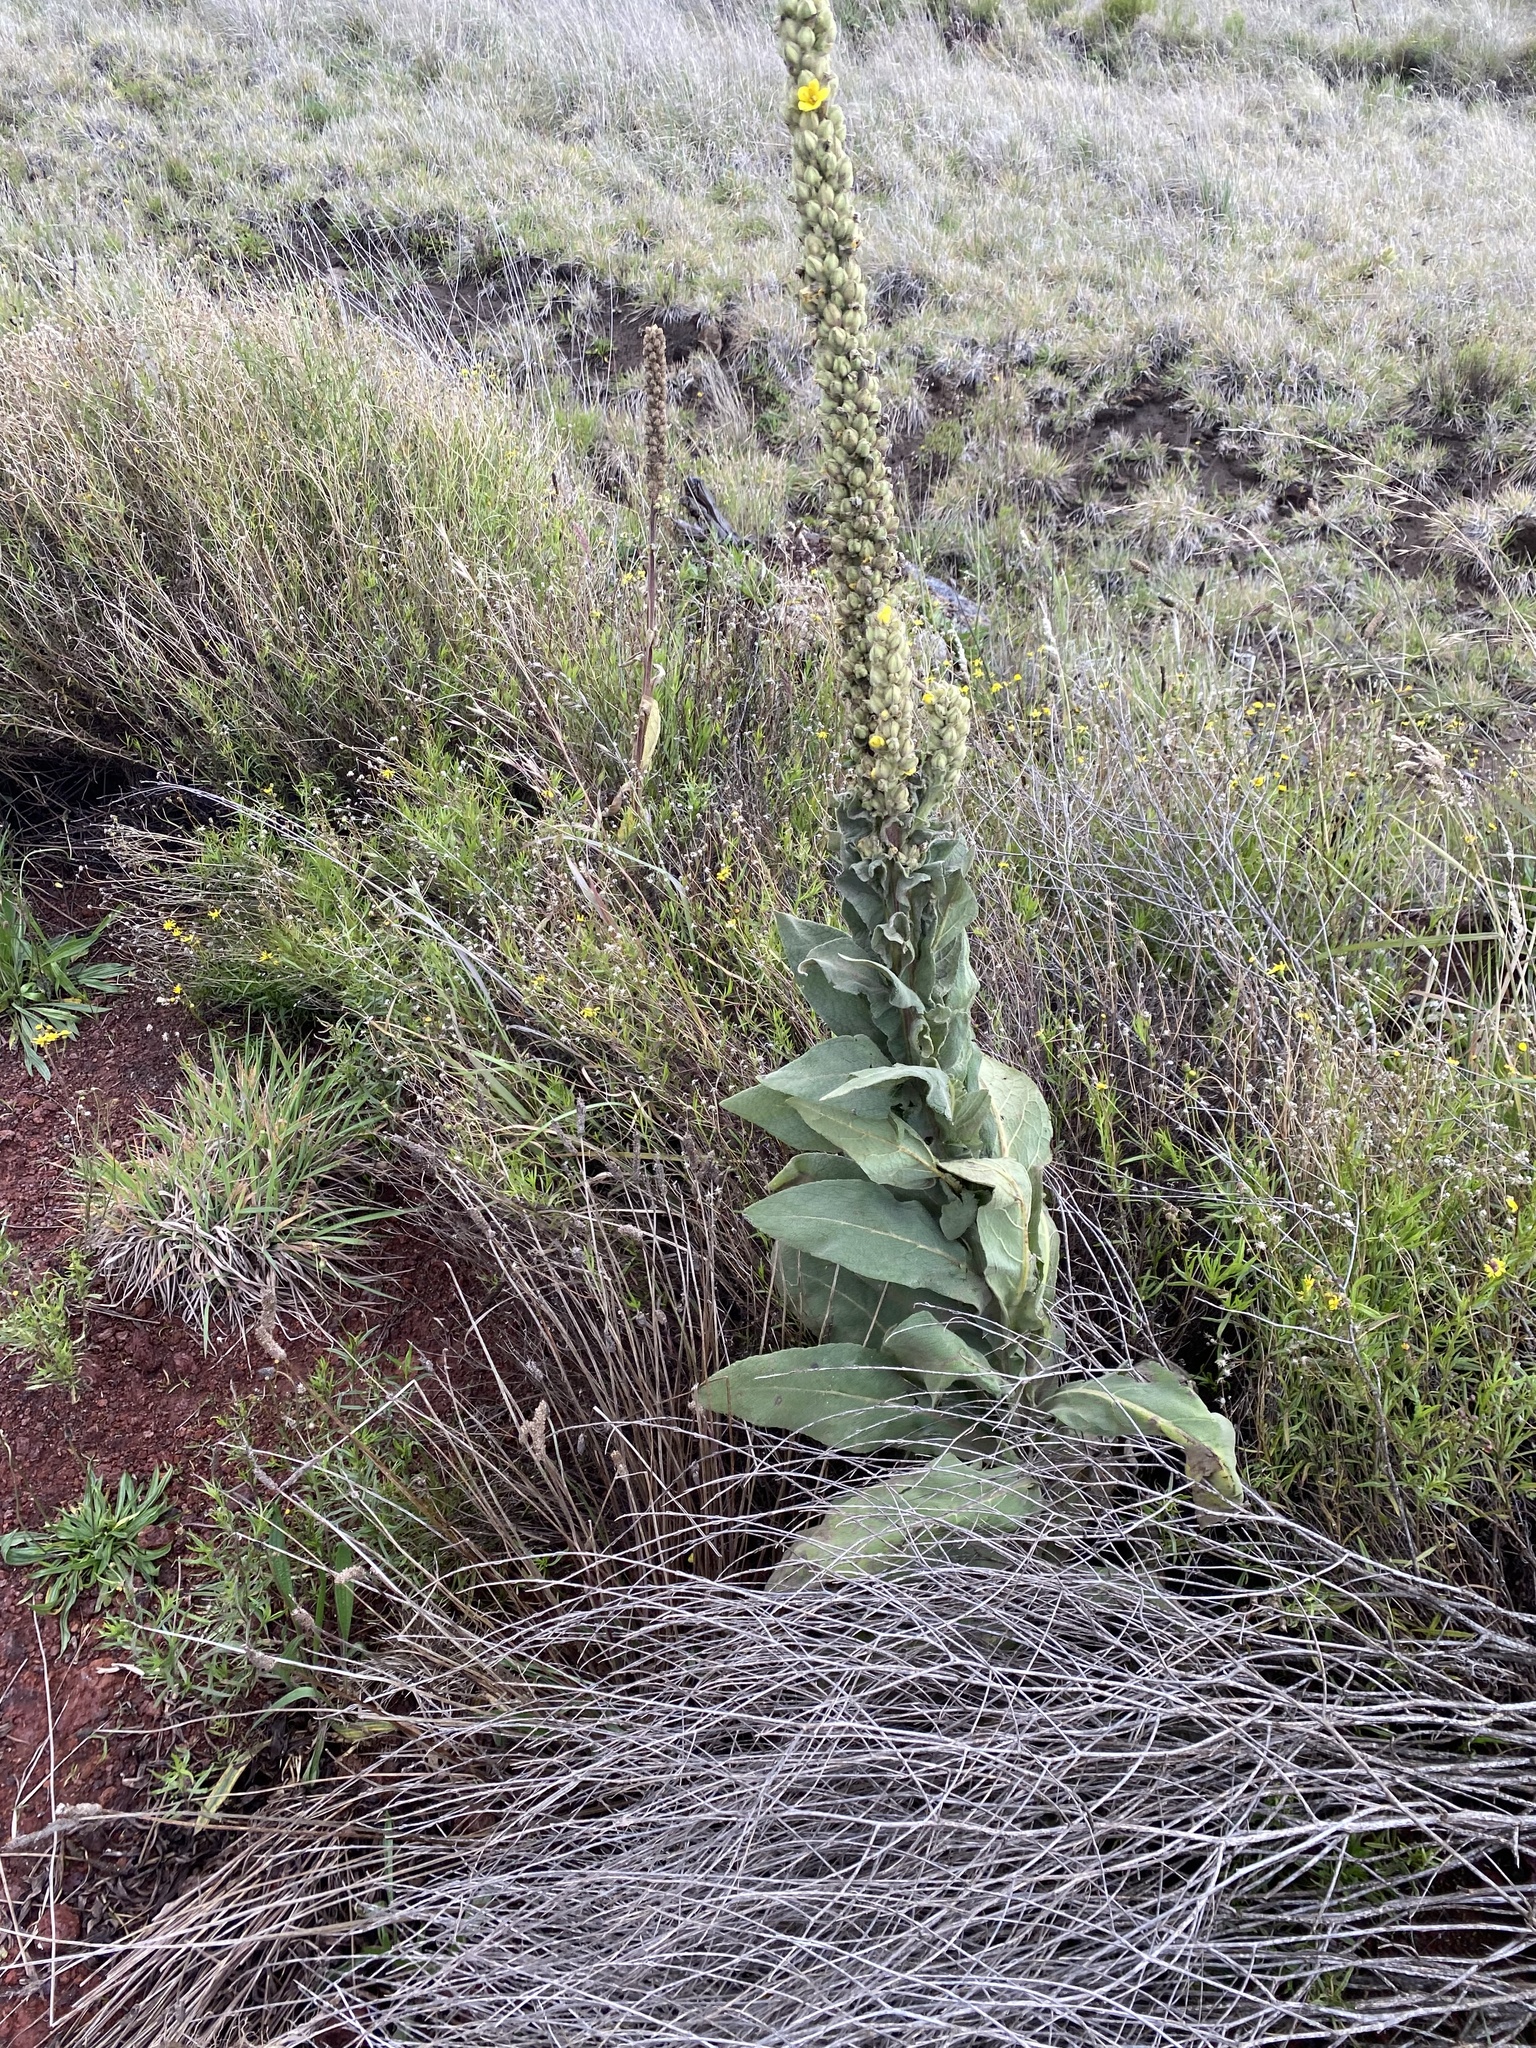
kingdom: Plantae
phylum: Tracheophyta
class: Magnoliopsida
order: Lamiales
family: Scrophulariaceae
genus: Verbascum
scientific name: Verbascum thapsus
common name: Common mullein
